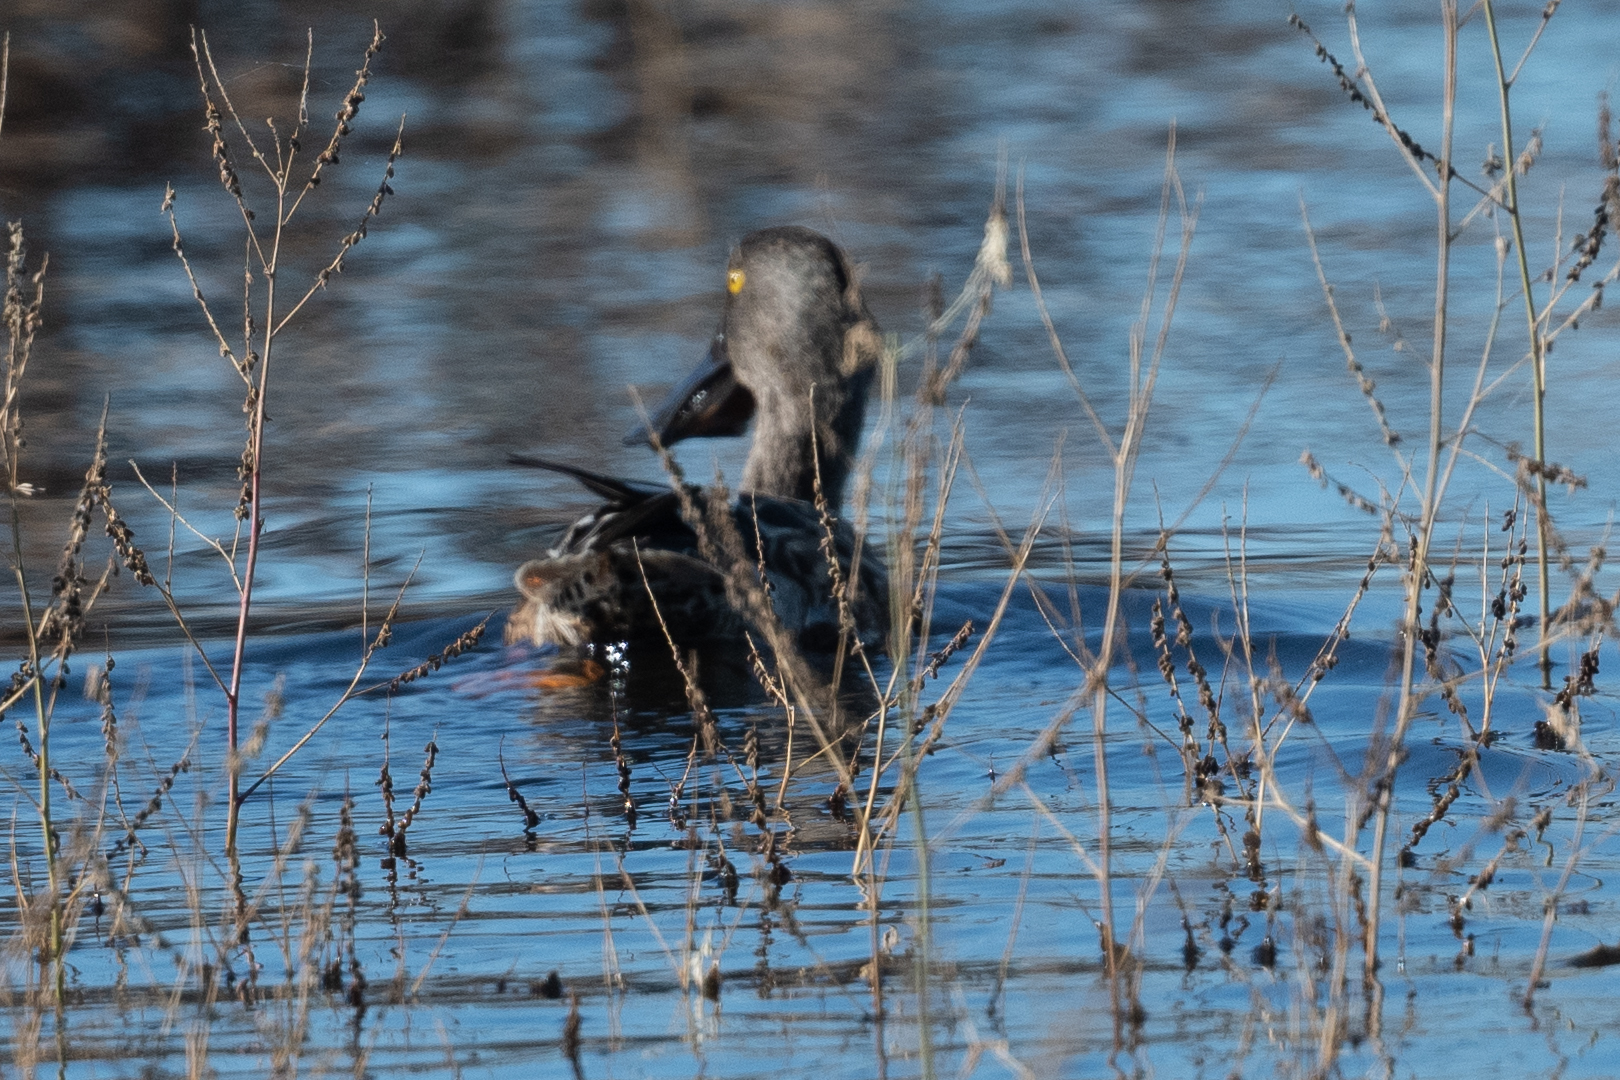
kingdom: Animalia
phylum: Chordata
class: Aves
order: Anseriformes
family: Anatidae
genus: Spatula
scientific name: Spatula clypeata
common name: Northern shoveler
